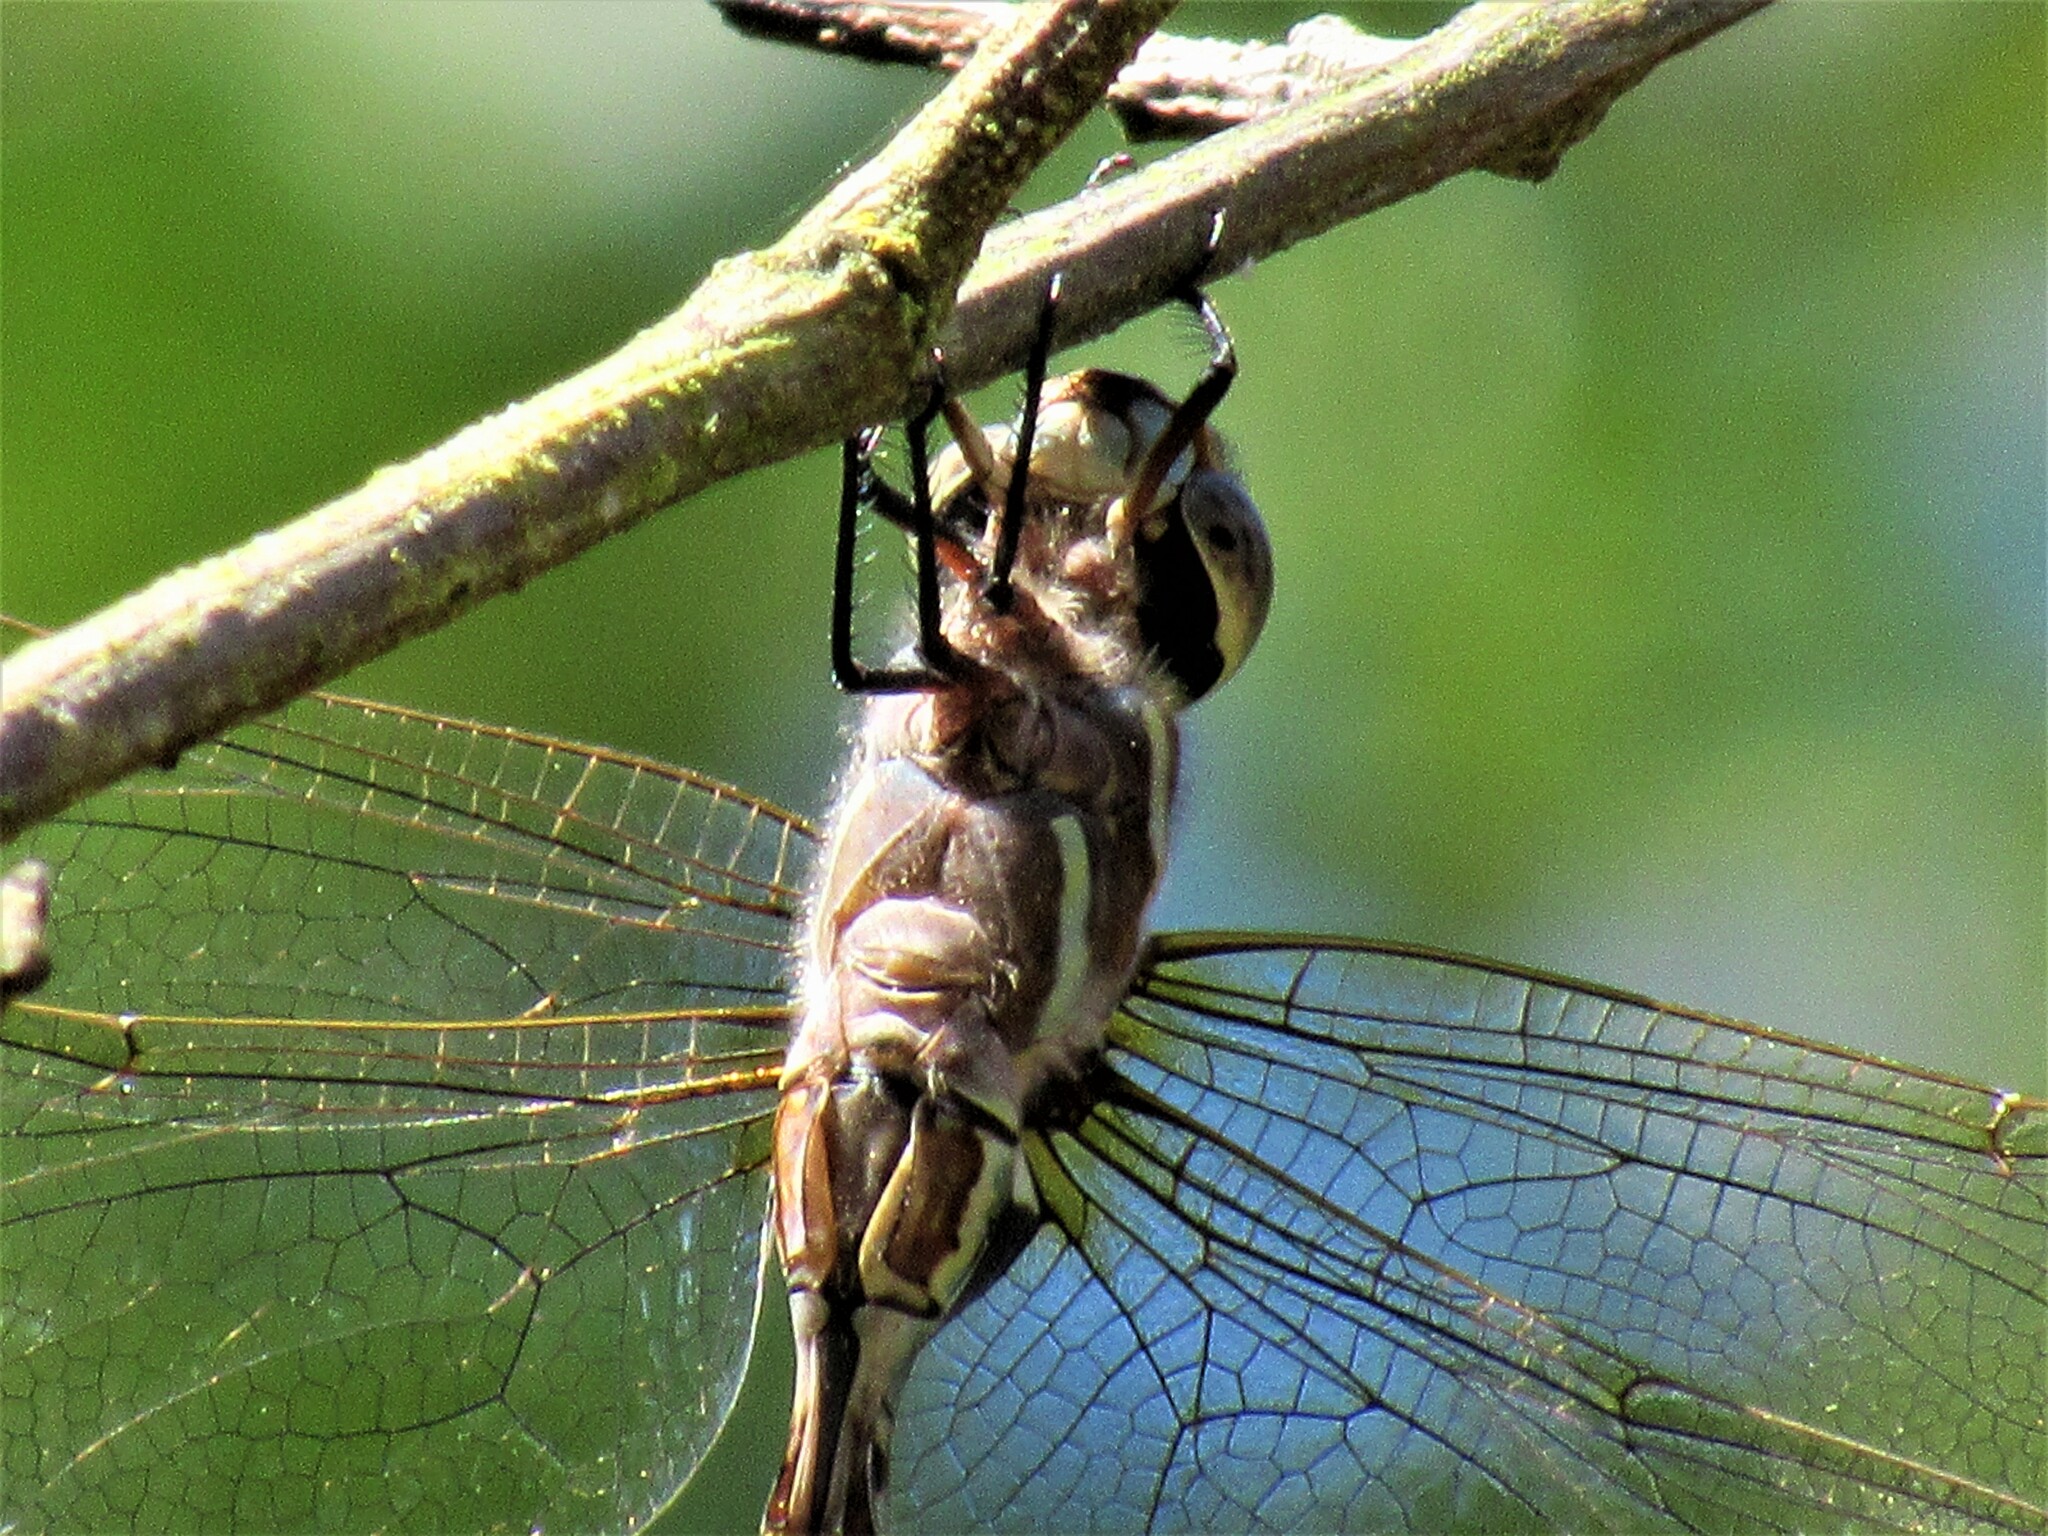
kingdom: Animalia
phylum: Arthropoda
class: Insecta
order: Odonata
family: Aeshnidae
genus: Rhionaeschna
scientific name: Rhionaeschna multicolor
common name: Blue-eyed darner
